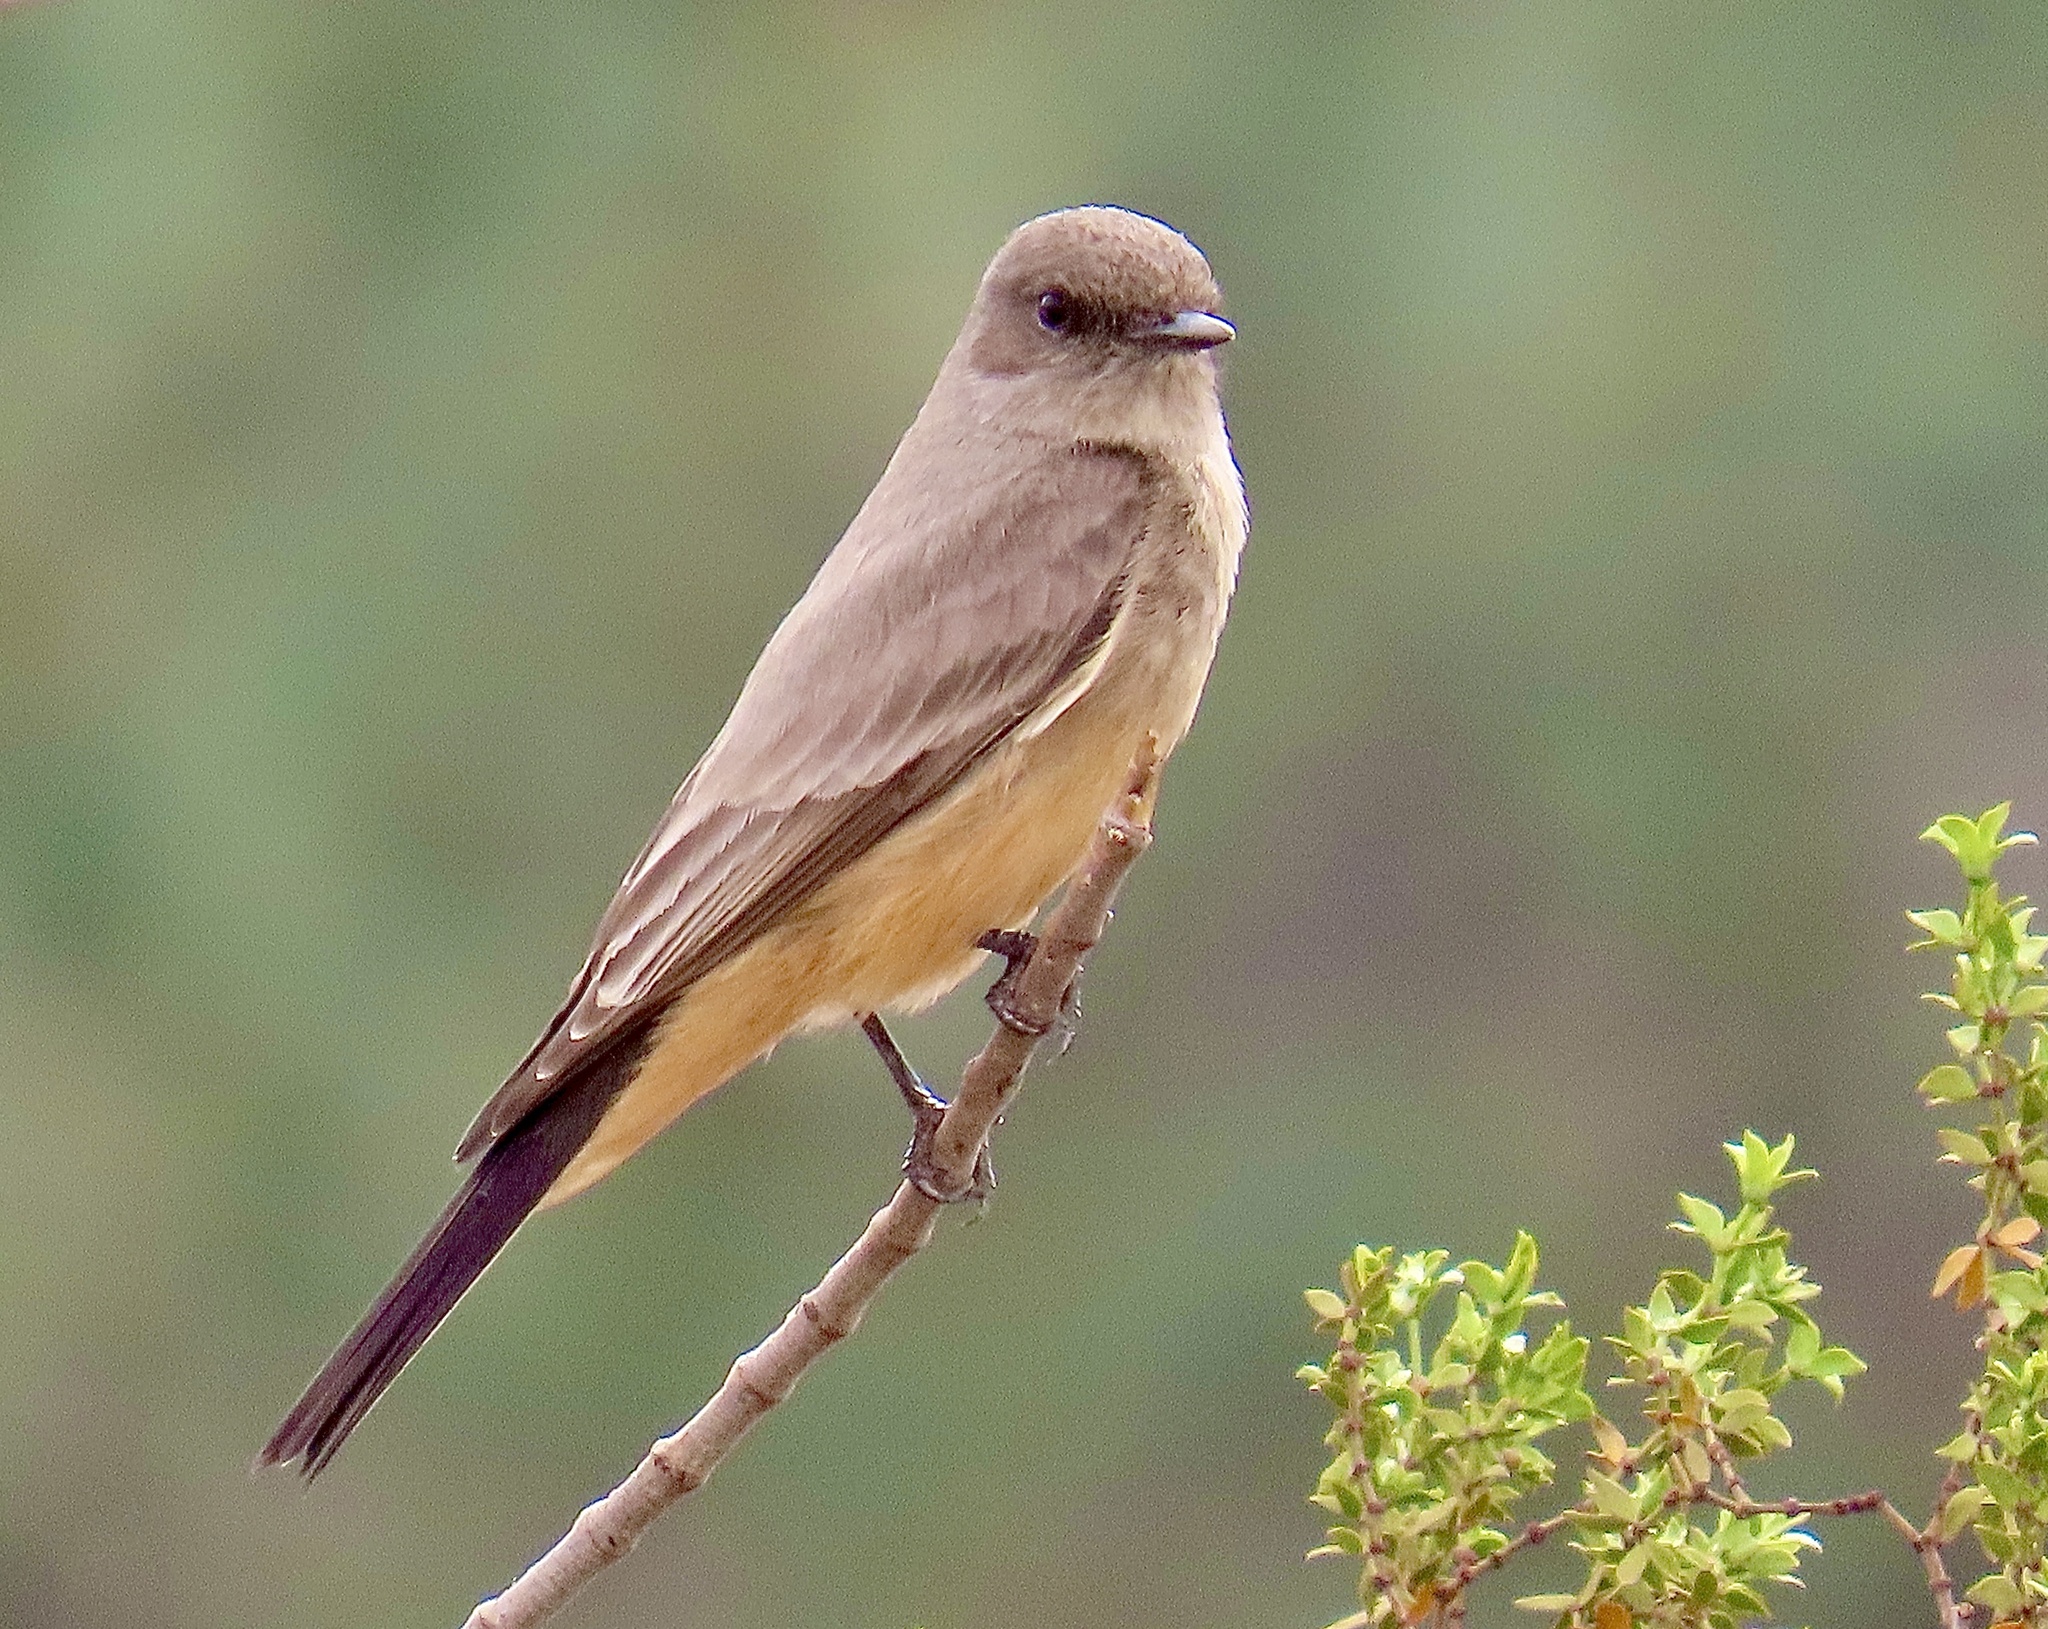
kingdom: Animalia
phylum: Chordata
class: Aves
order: Passeriformes
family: Tyrannidae
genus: Sayornis
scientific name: Sayornis saya
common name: Say's phoebe
